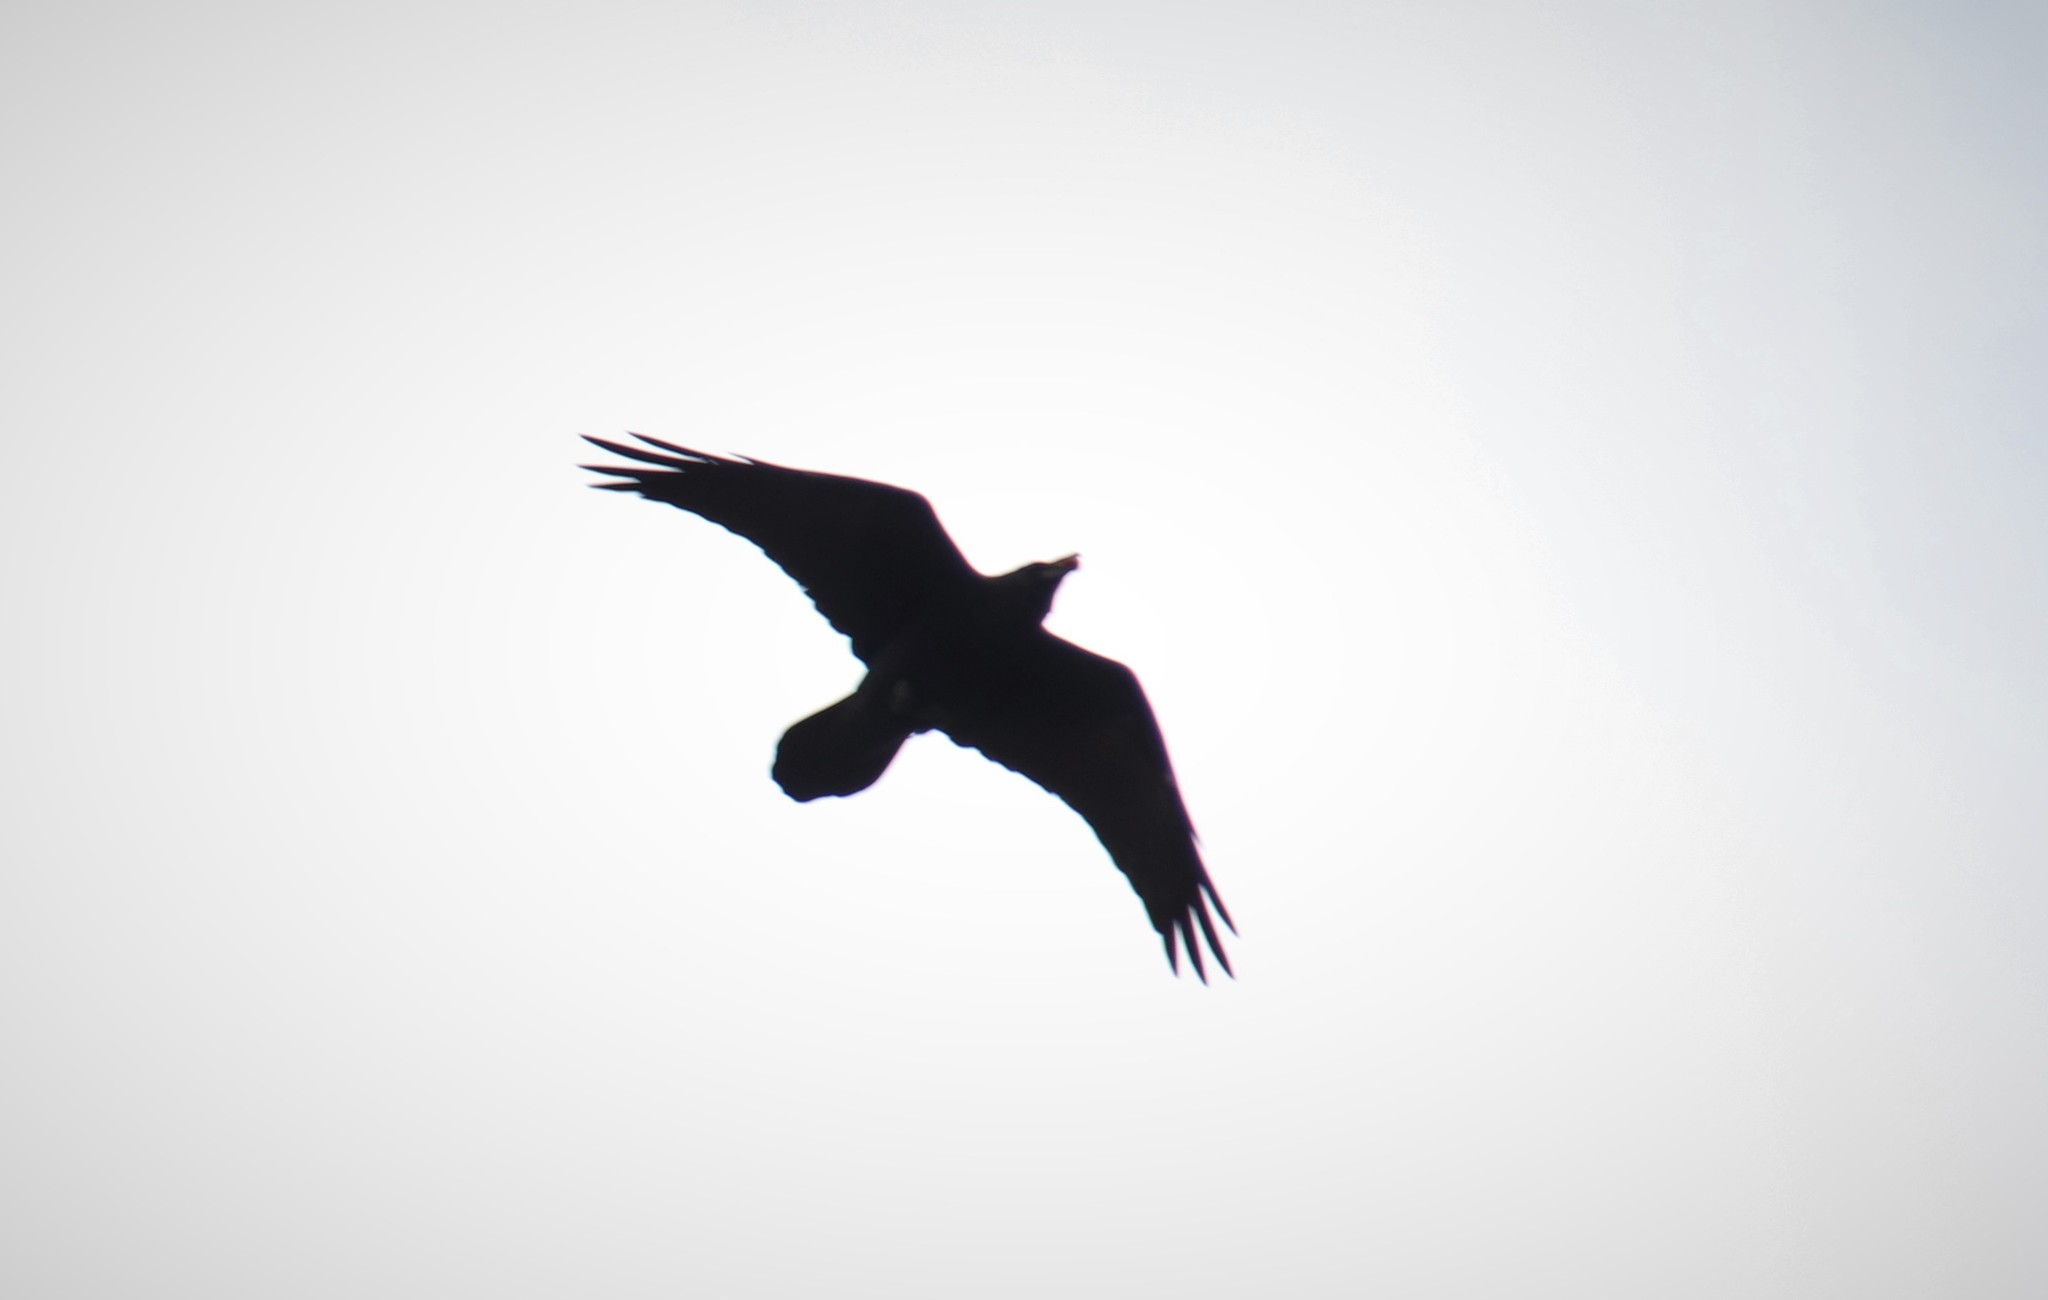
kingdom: Animalia
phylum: Chordata
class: Aves
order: Passeriformes
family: Corvidae
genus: Corvus
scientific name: Corvus corax
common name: Common raven
